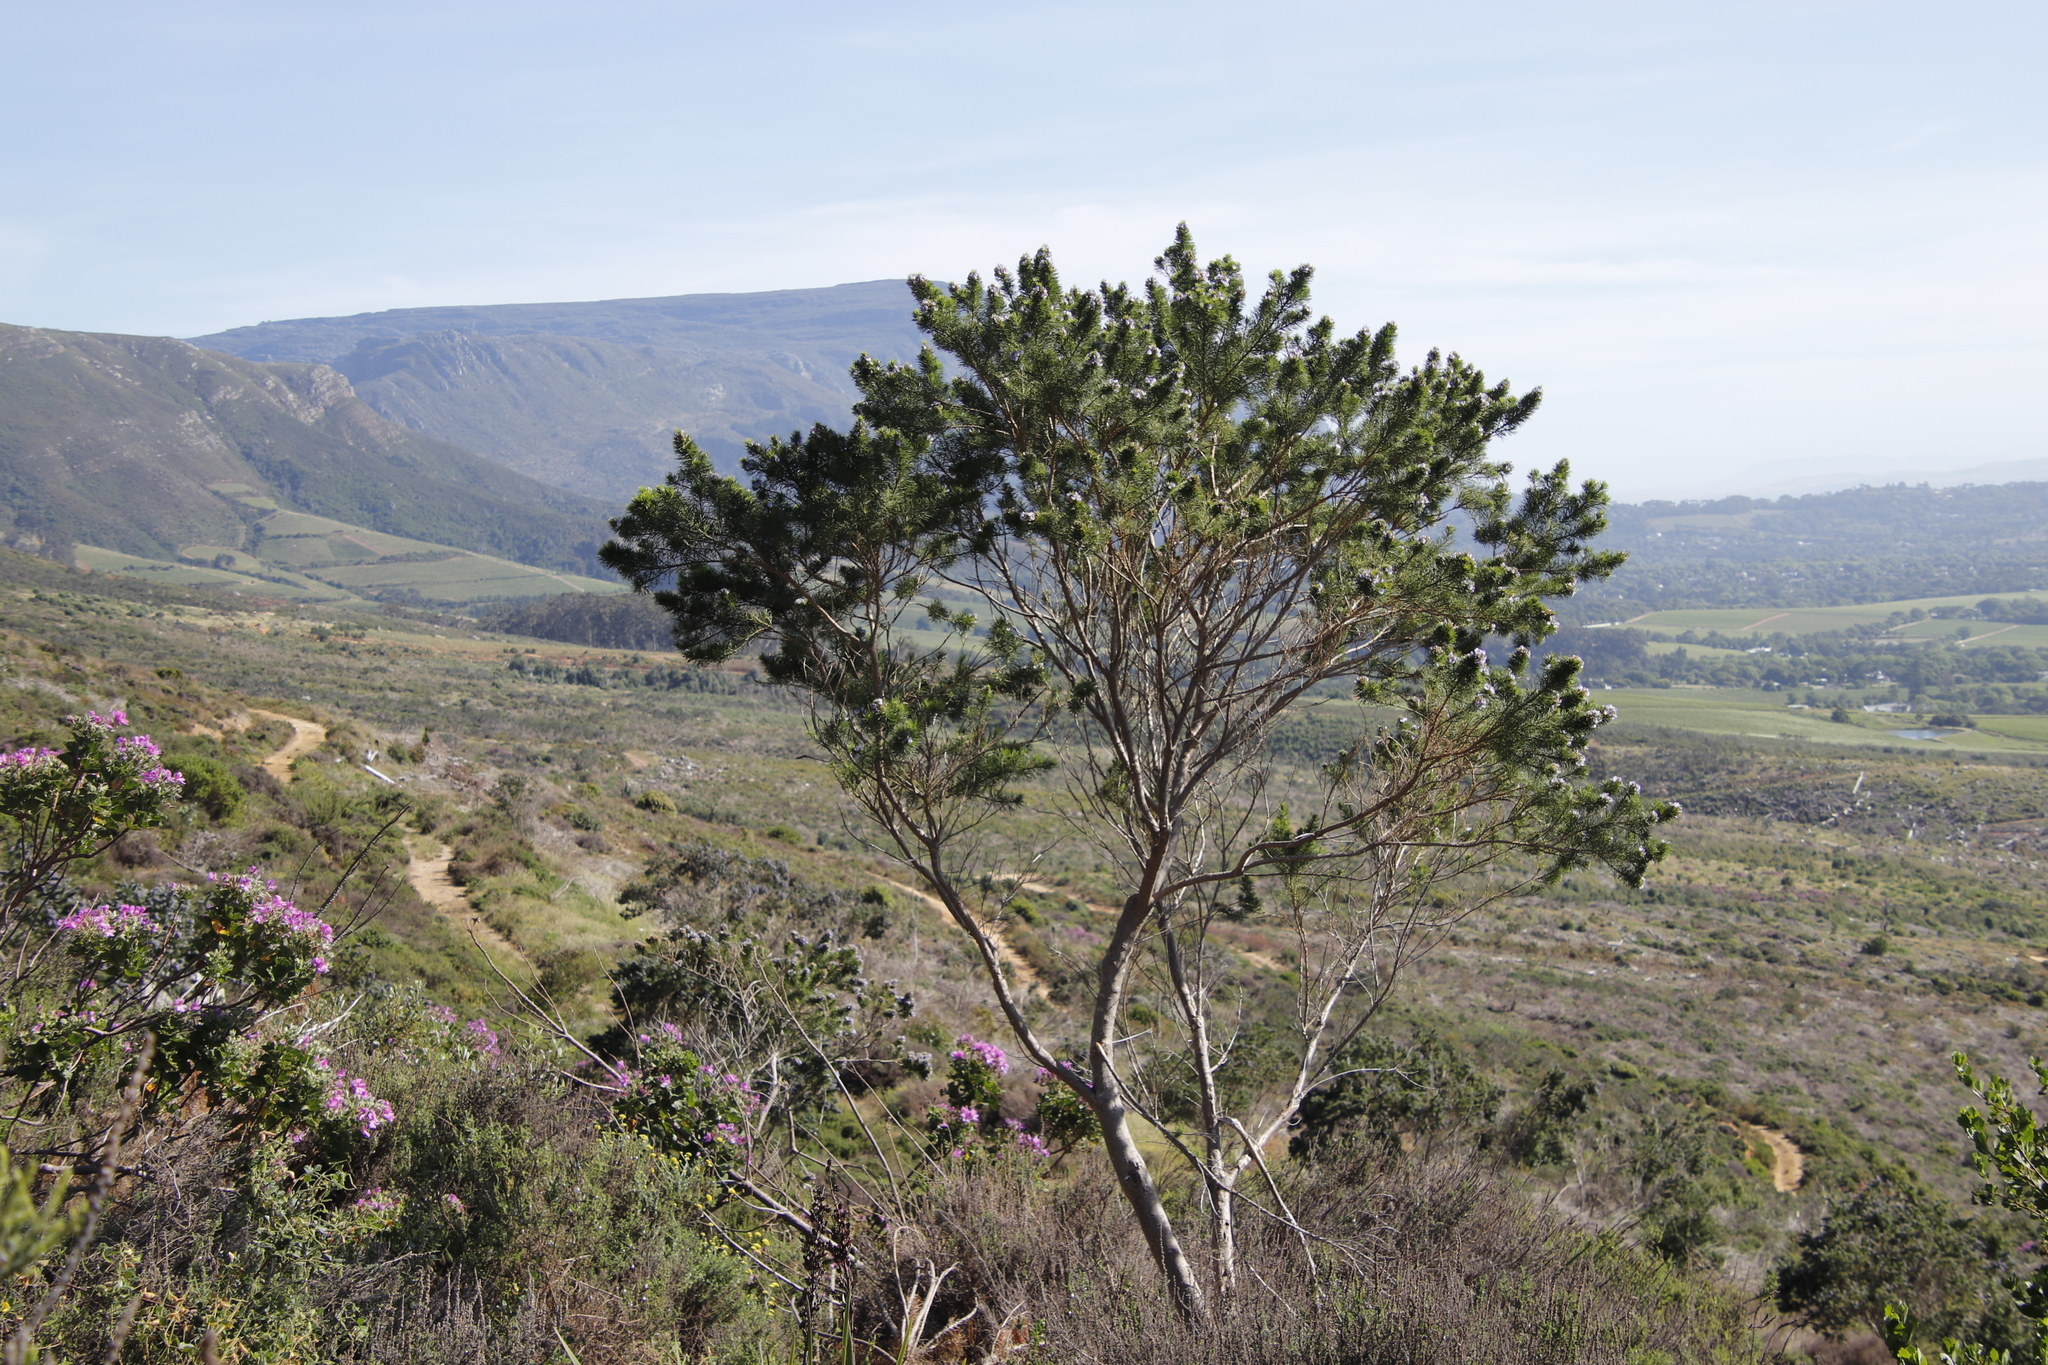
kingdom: Plantae
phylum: Tracheophyta
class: Magnoliopsida
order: Fabales
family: Fabaceae
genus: Psoralea
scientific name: Psoralea pinnata
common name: African scurfpea
